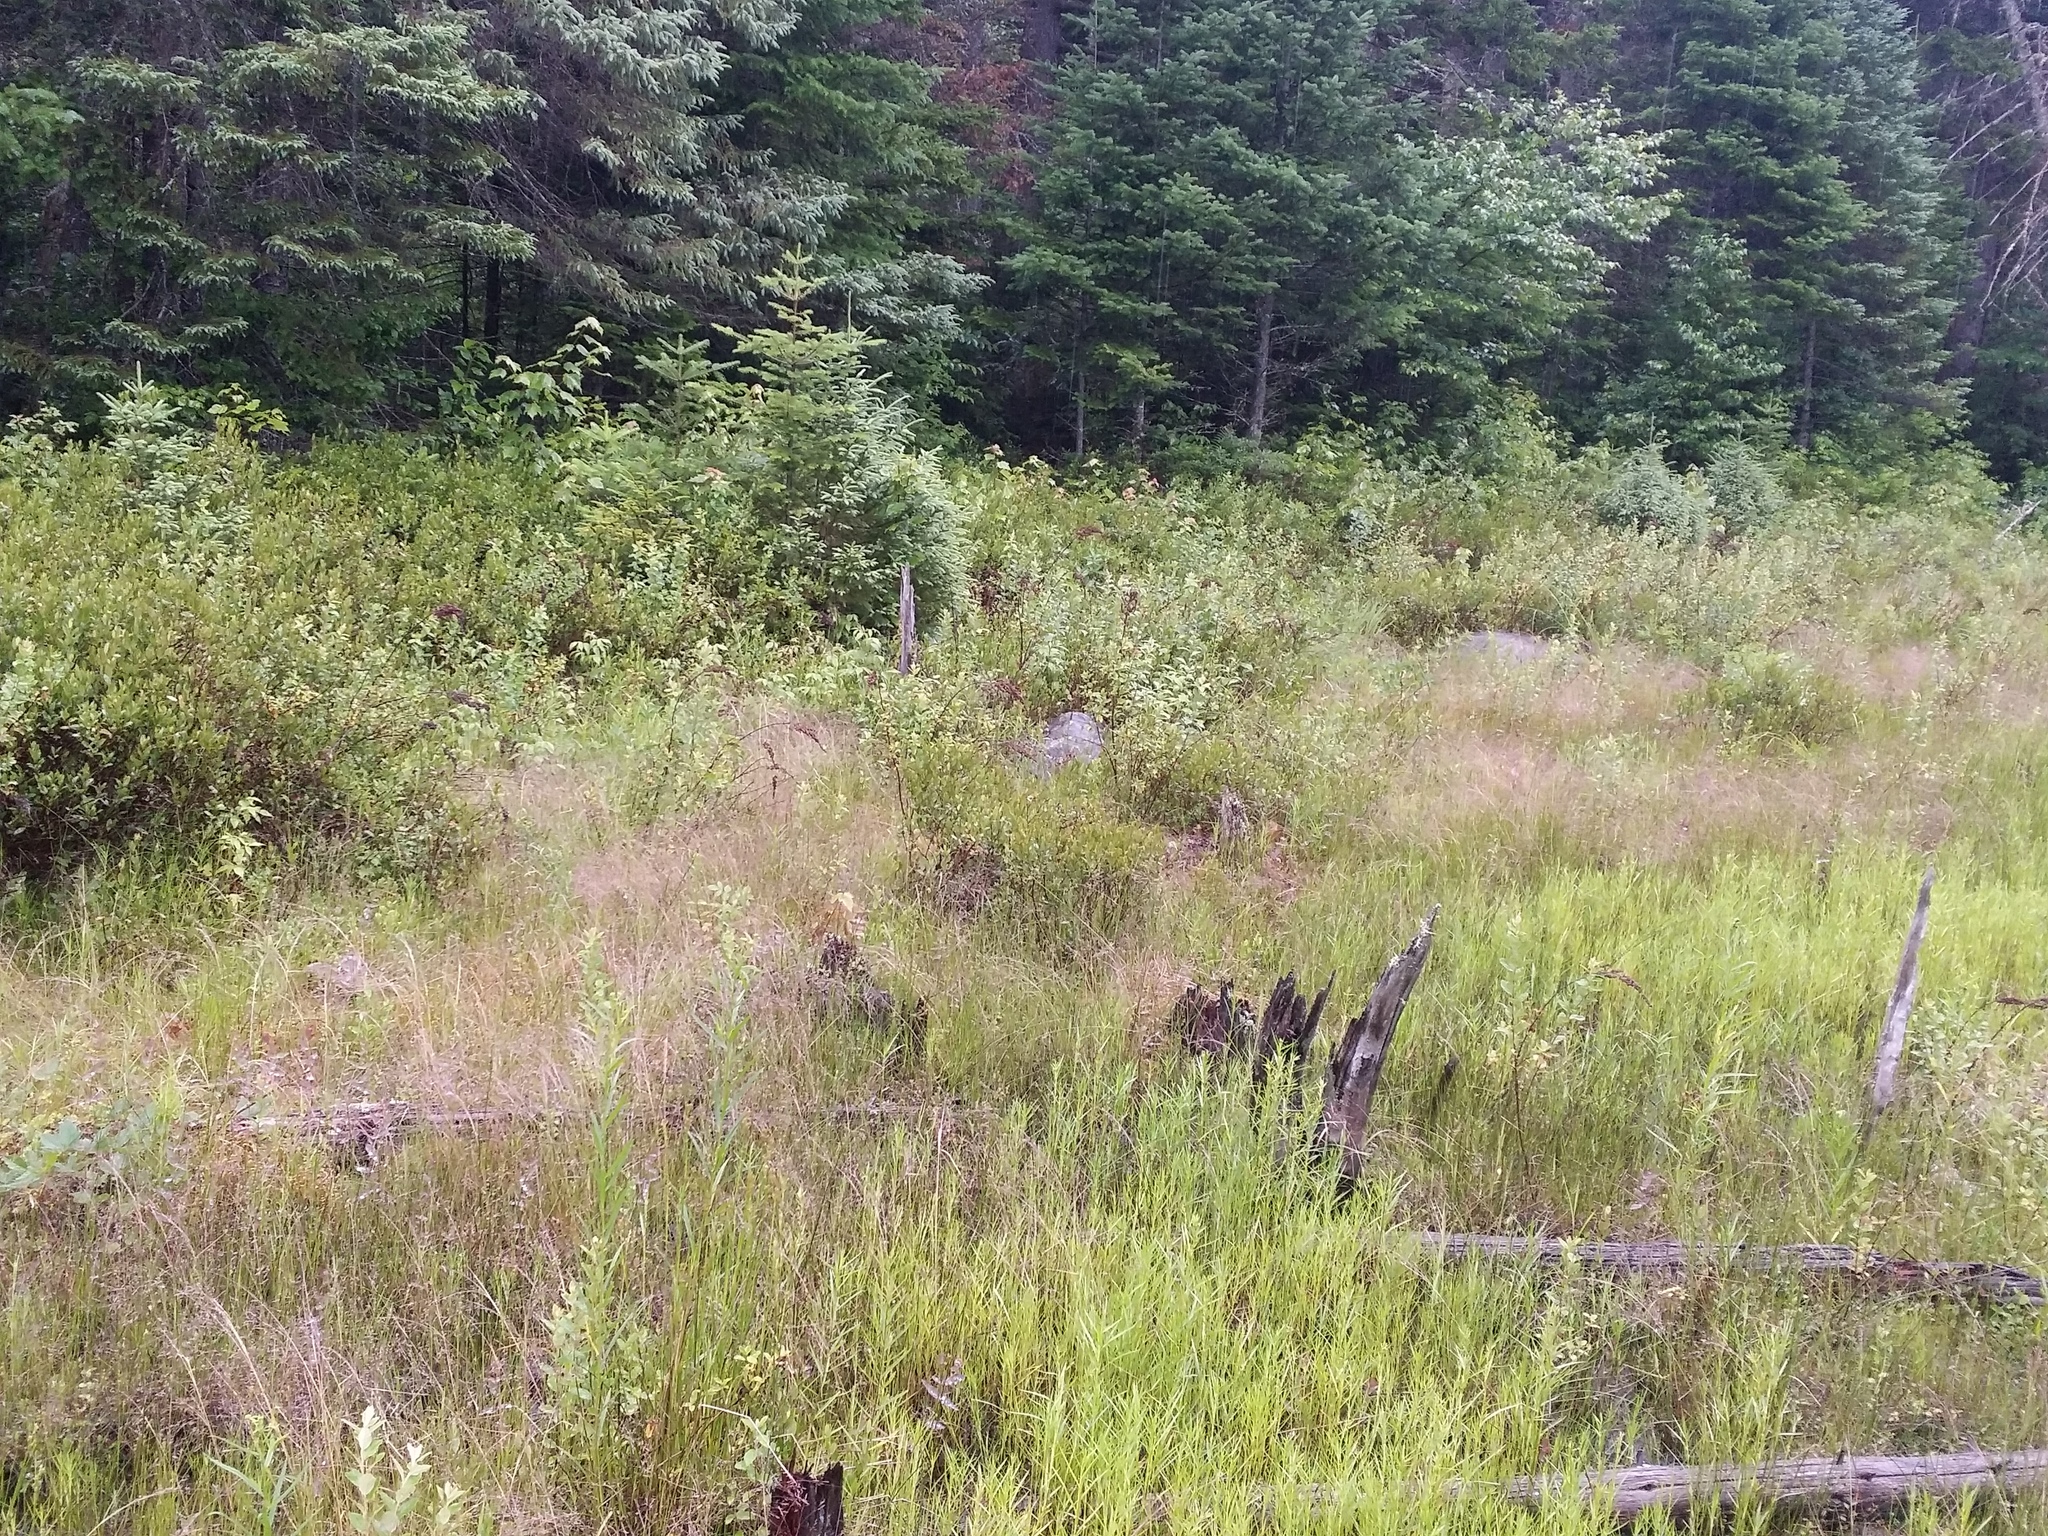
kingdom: Plantae
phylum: Tracheophyta
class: Magnoliopsida
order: Caryophyllales
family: Droseraceae
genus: Drosera
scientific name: Drosera rotundifolia
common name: Round-leaved sundew
